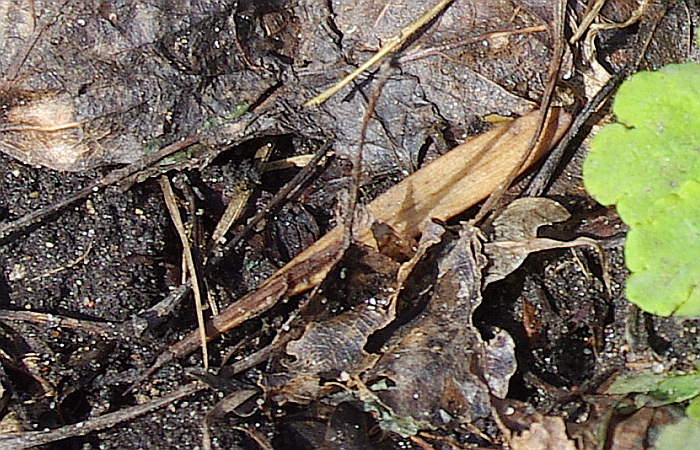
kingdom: Plantae
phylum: Tracheophyta
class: Magnoliopsida
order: Lamiales
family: Oleaceae
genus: Fraxinus
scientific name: Fraxinus pennsylvanica
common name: Green ash
